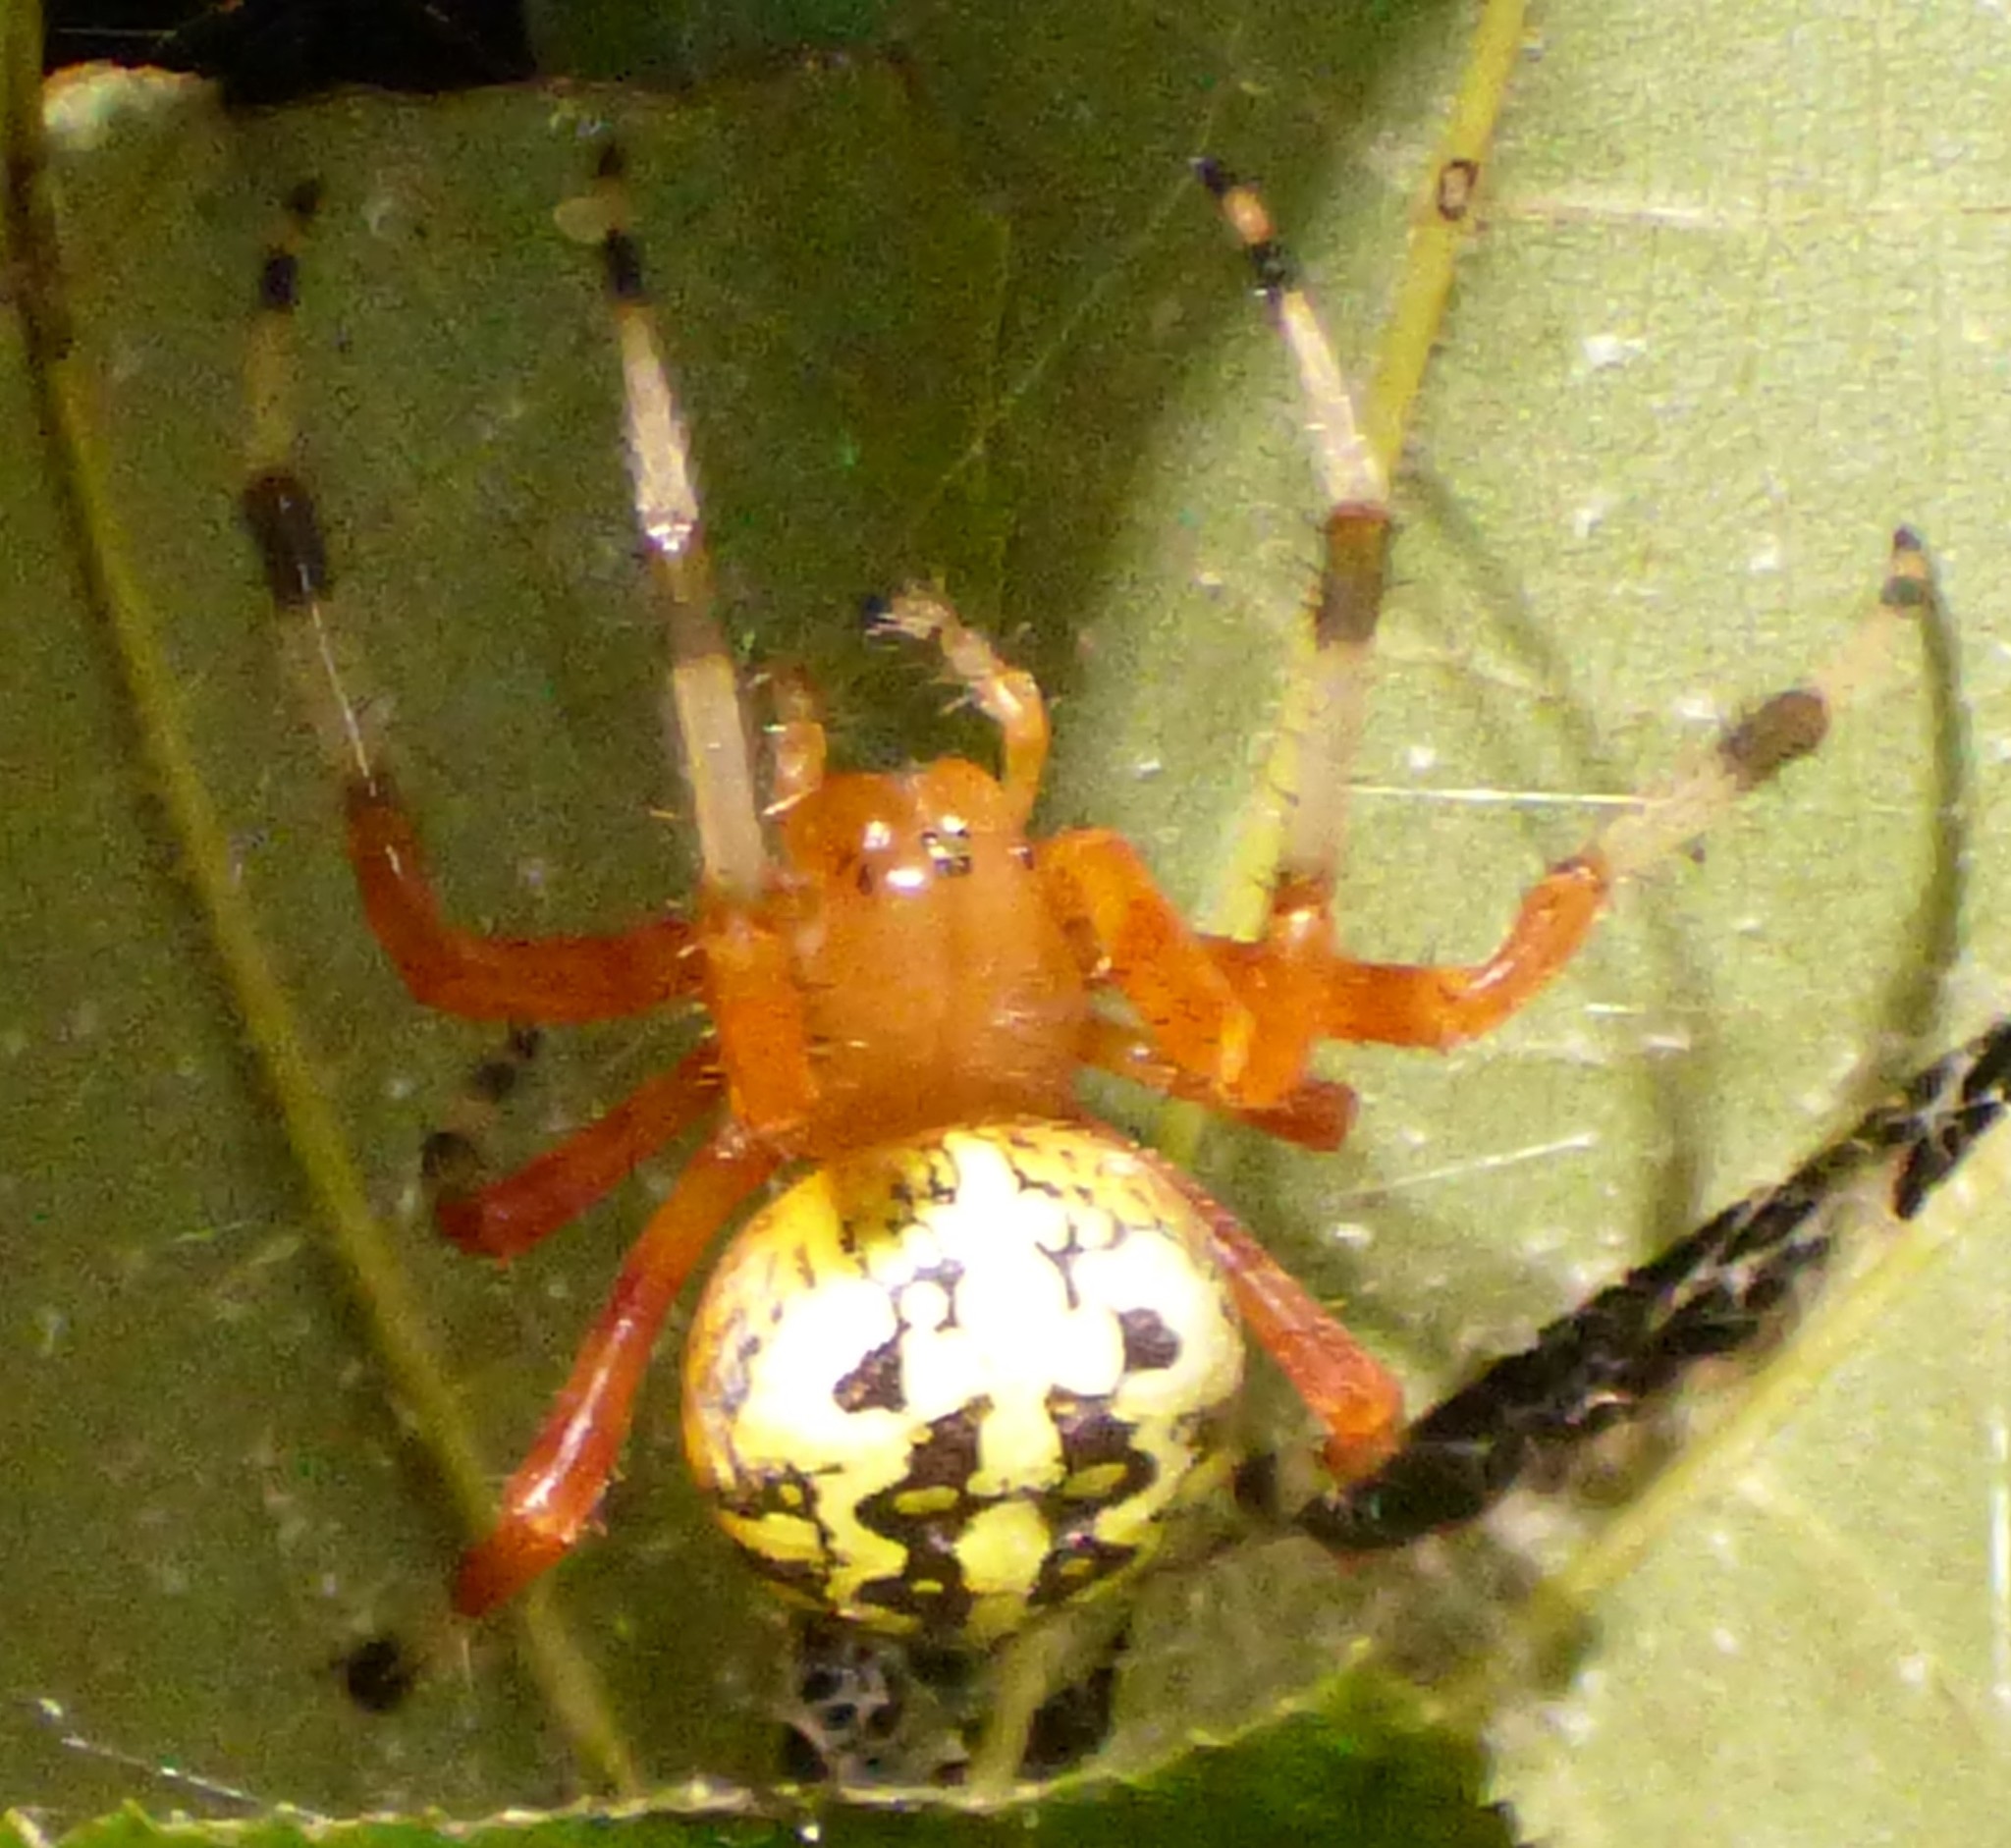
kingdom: Animalia
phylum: Arthropoda
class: Arachnida
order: Araneae
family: Araneidae
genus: Araneus
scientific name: Araneus marmoreus
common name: Marbled orbweaver
